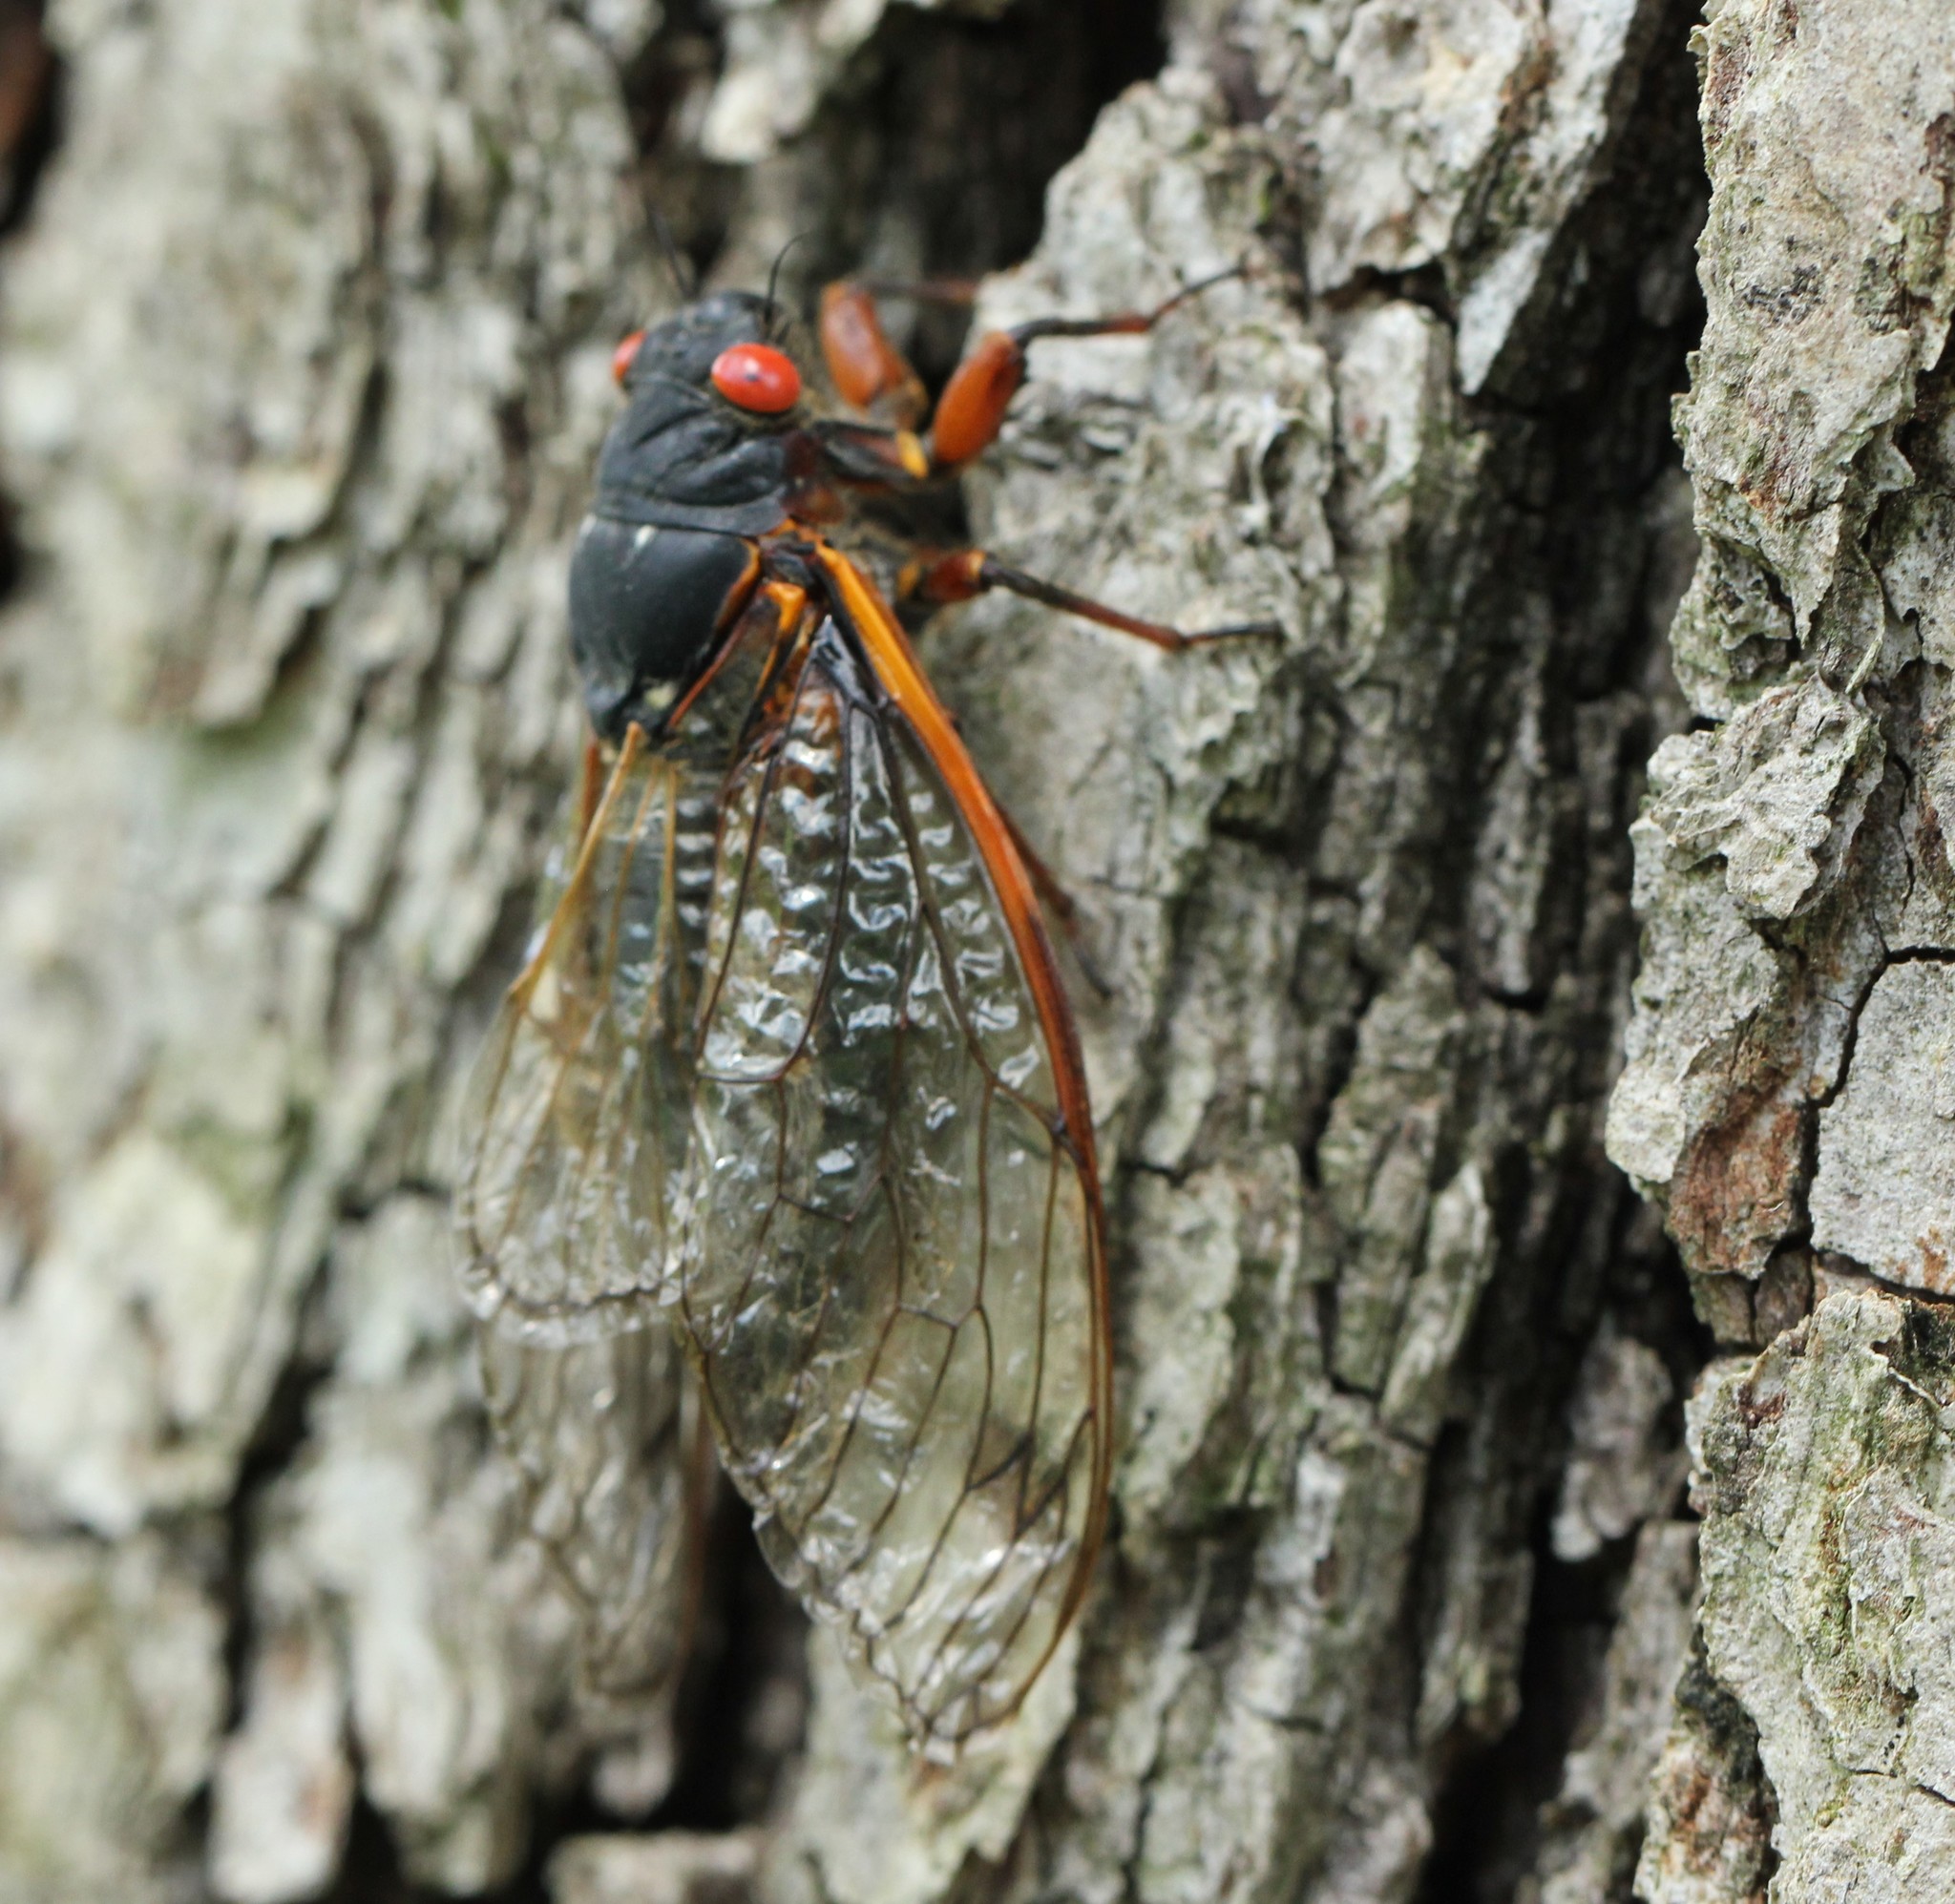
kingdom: Animalia
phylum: Arthropoda
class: Insecta
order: Hemiptera
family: Cicadidae
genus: Magicicada
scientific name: Magicicada septendecim
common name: Periodical cicada
